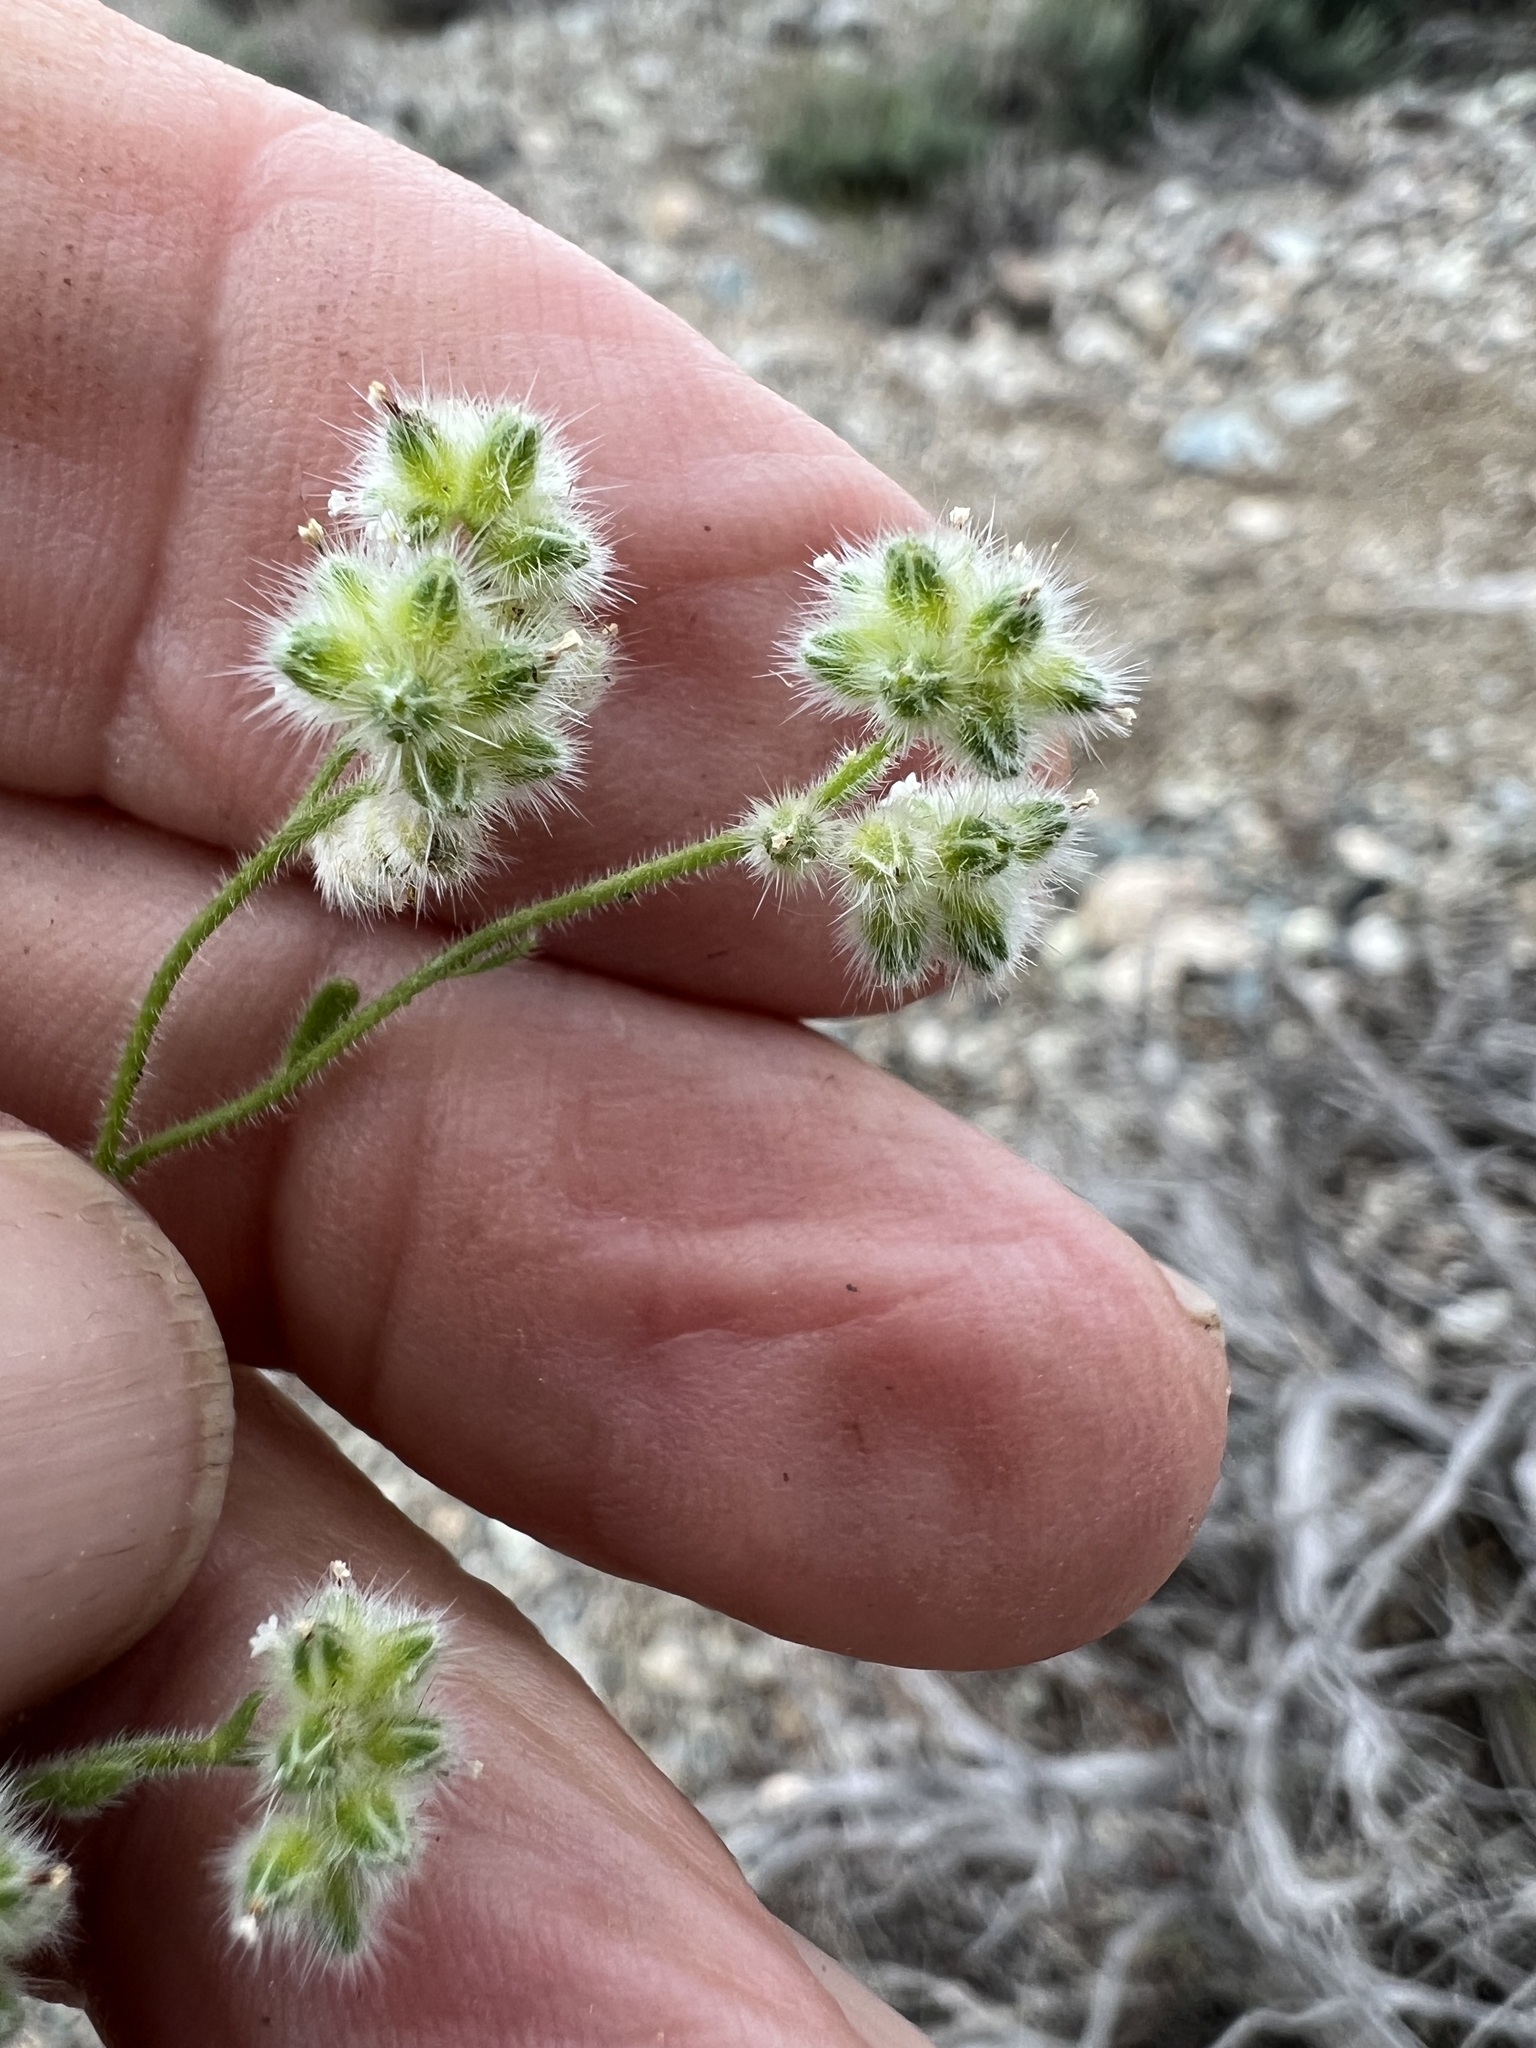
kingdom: Plantae
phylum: Tracheophyta
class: Magnoliopsida
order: Boraginales
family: Boraginaceae
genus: Cryptantha
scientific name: Cryptantha pterocarya
